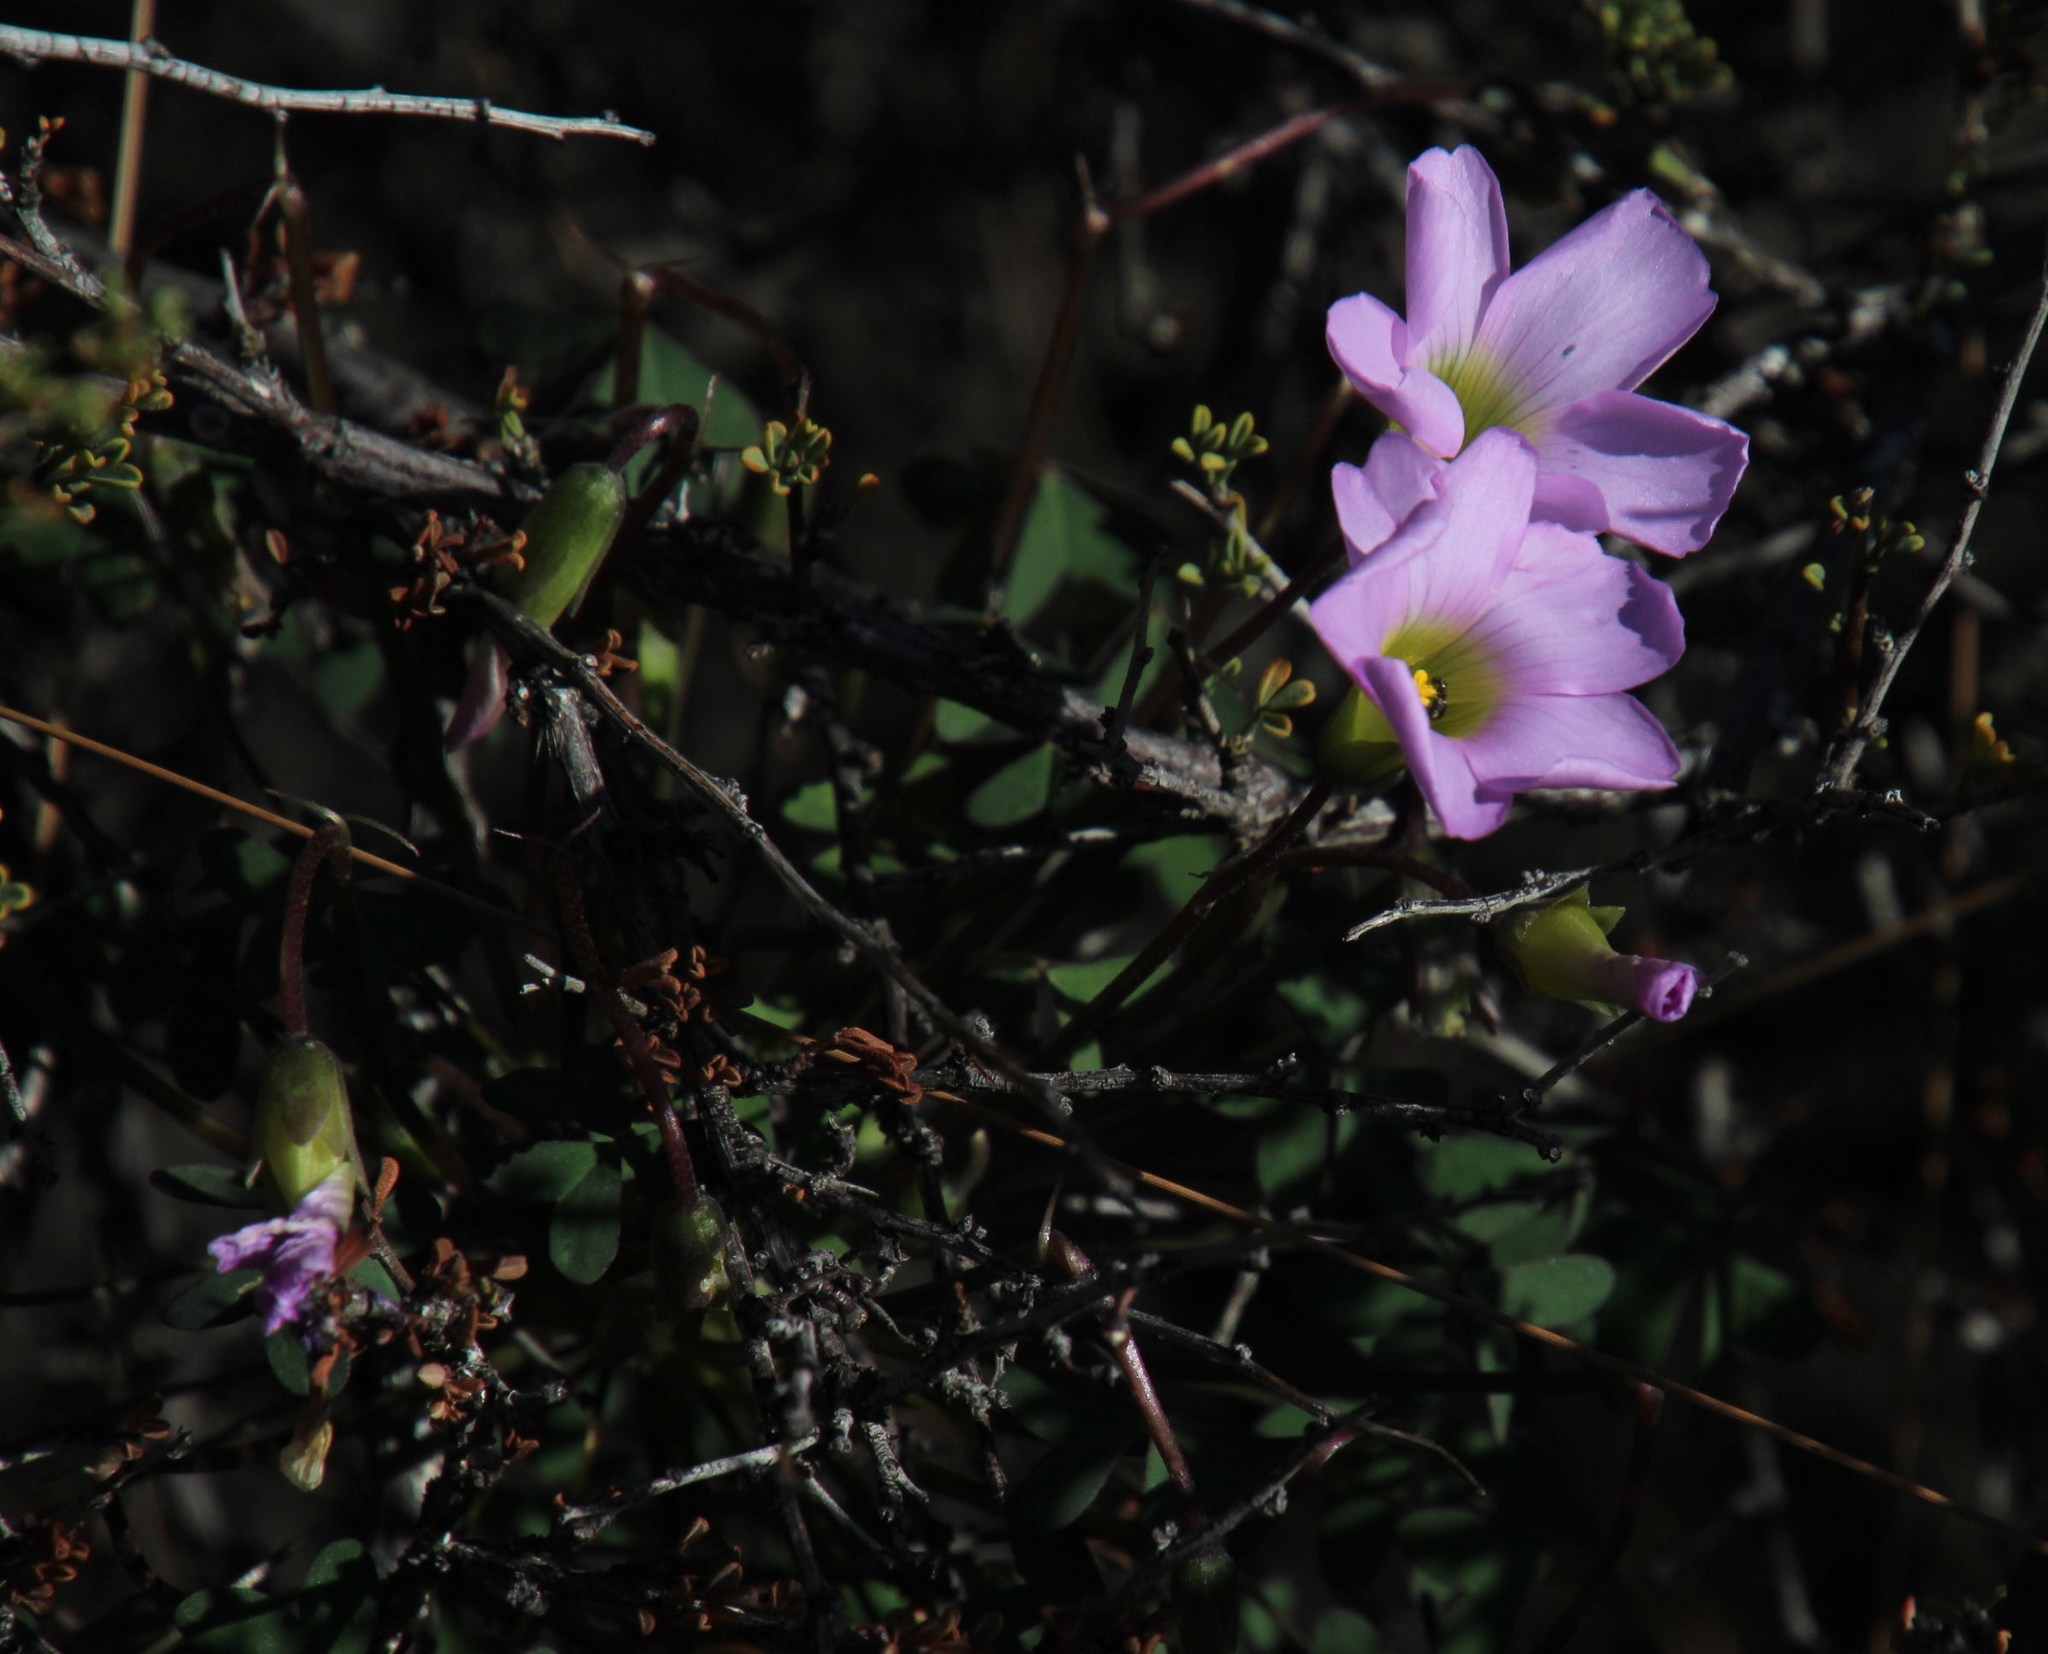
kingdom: Plantae
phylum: Tracheophyta
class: Magnoliopsida
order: Oxalidales
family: Oxalidaceae
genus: Oxalis
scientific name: Oxalis comosa
